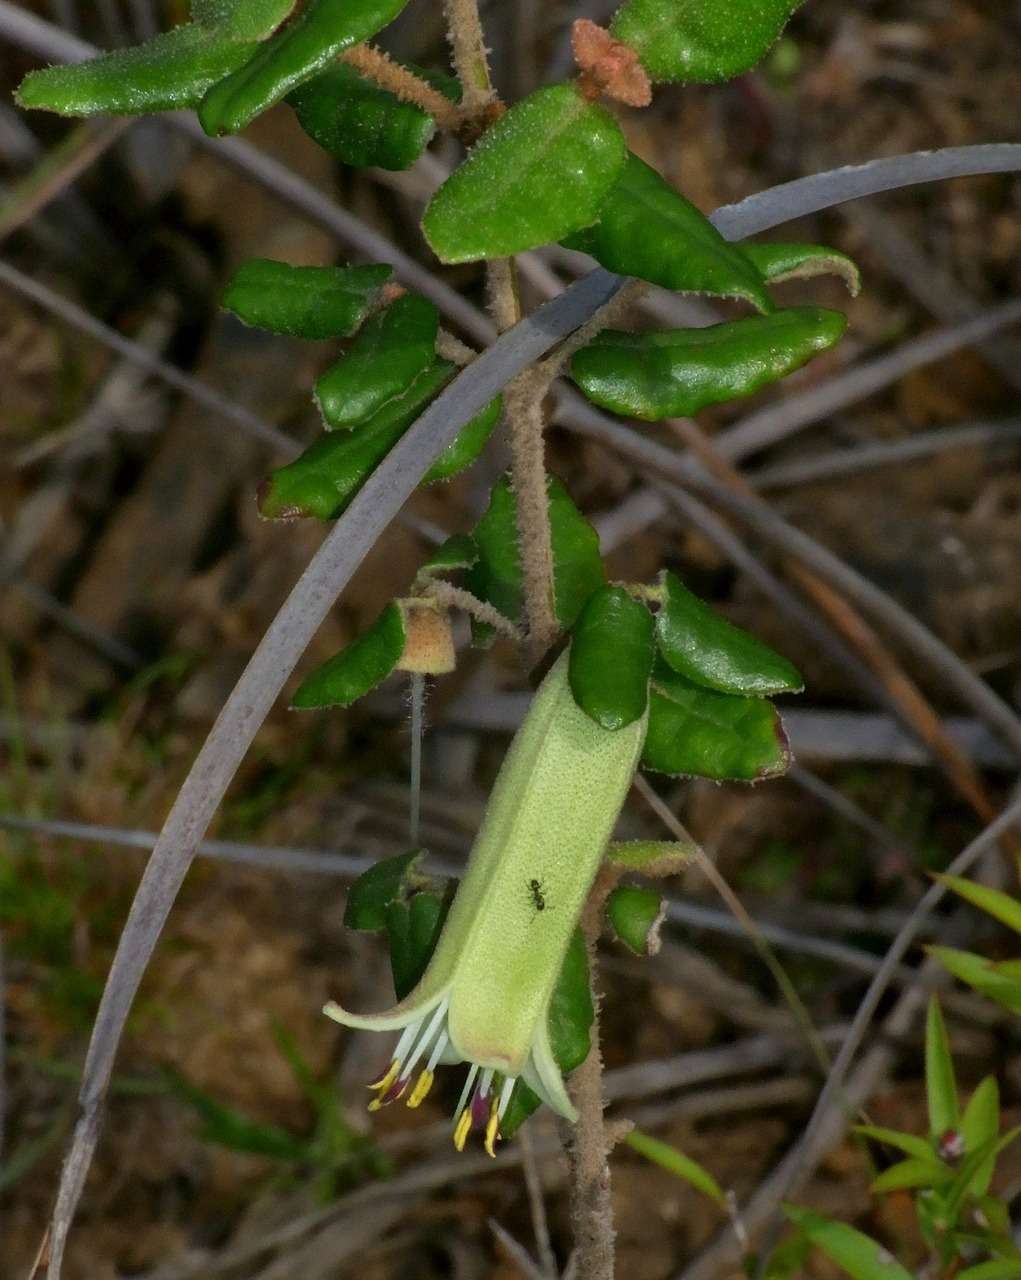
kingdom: Plantae
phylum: Tracheophyta
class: Magnoliopsida
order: Sapindales
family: Rutaceae
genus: Correa
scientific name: Correa reflexa
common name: Common correa
